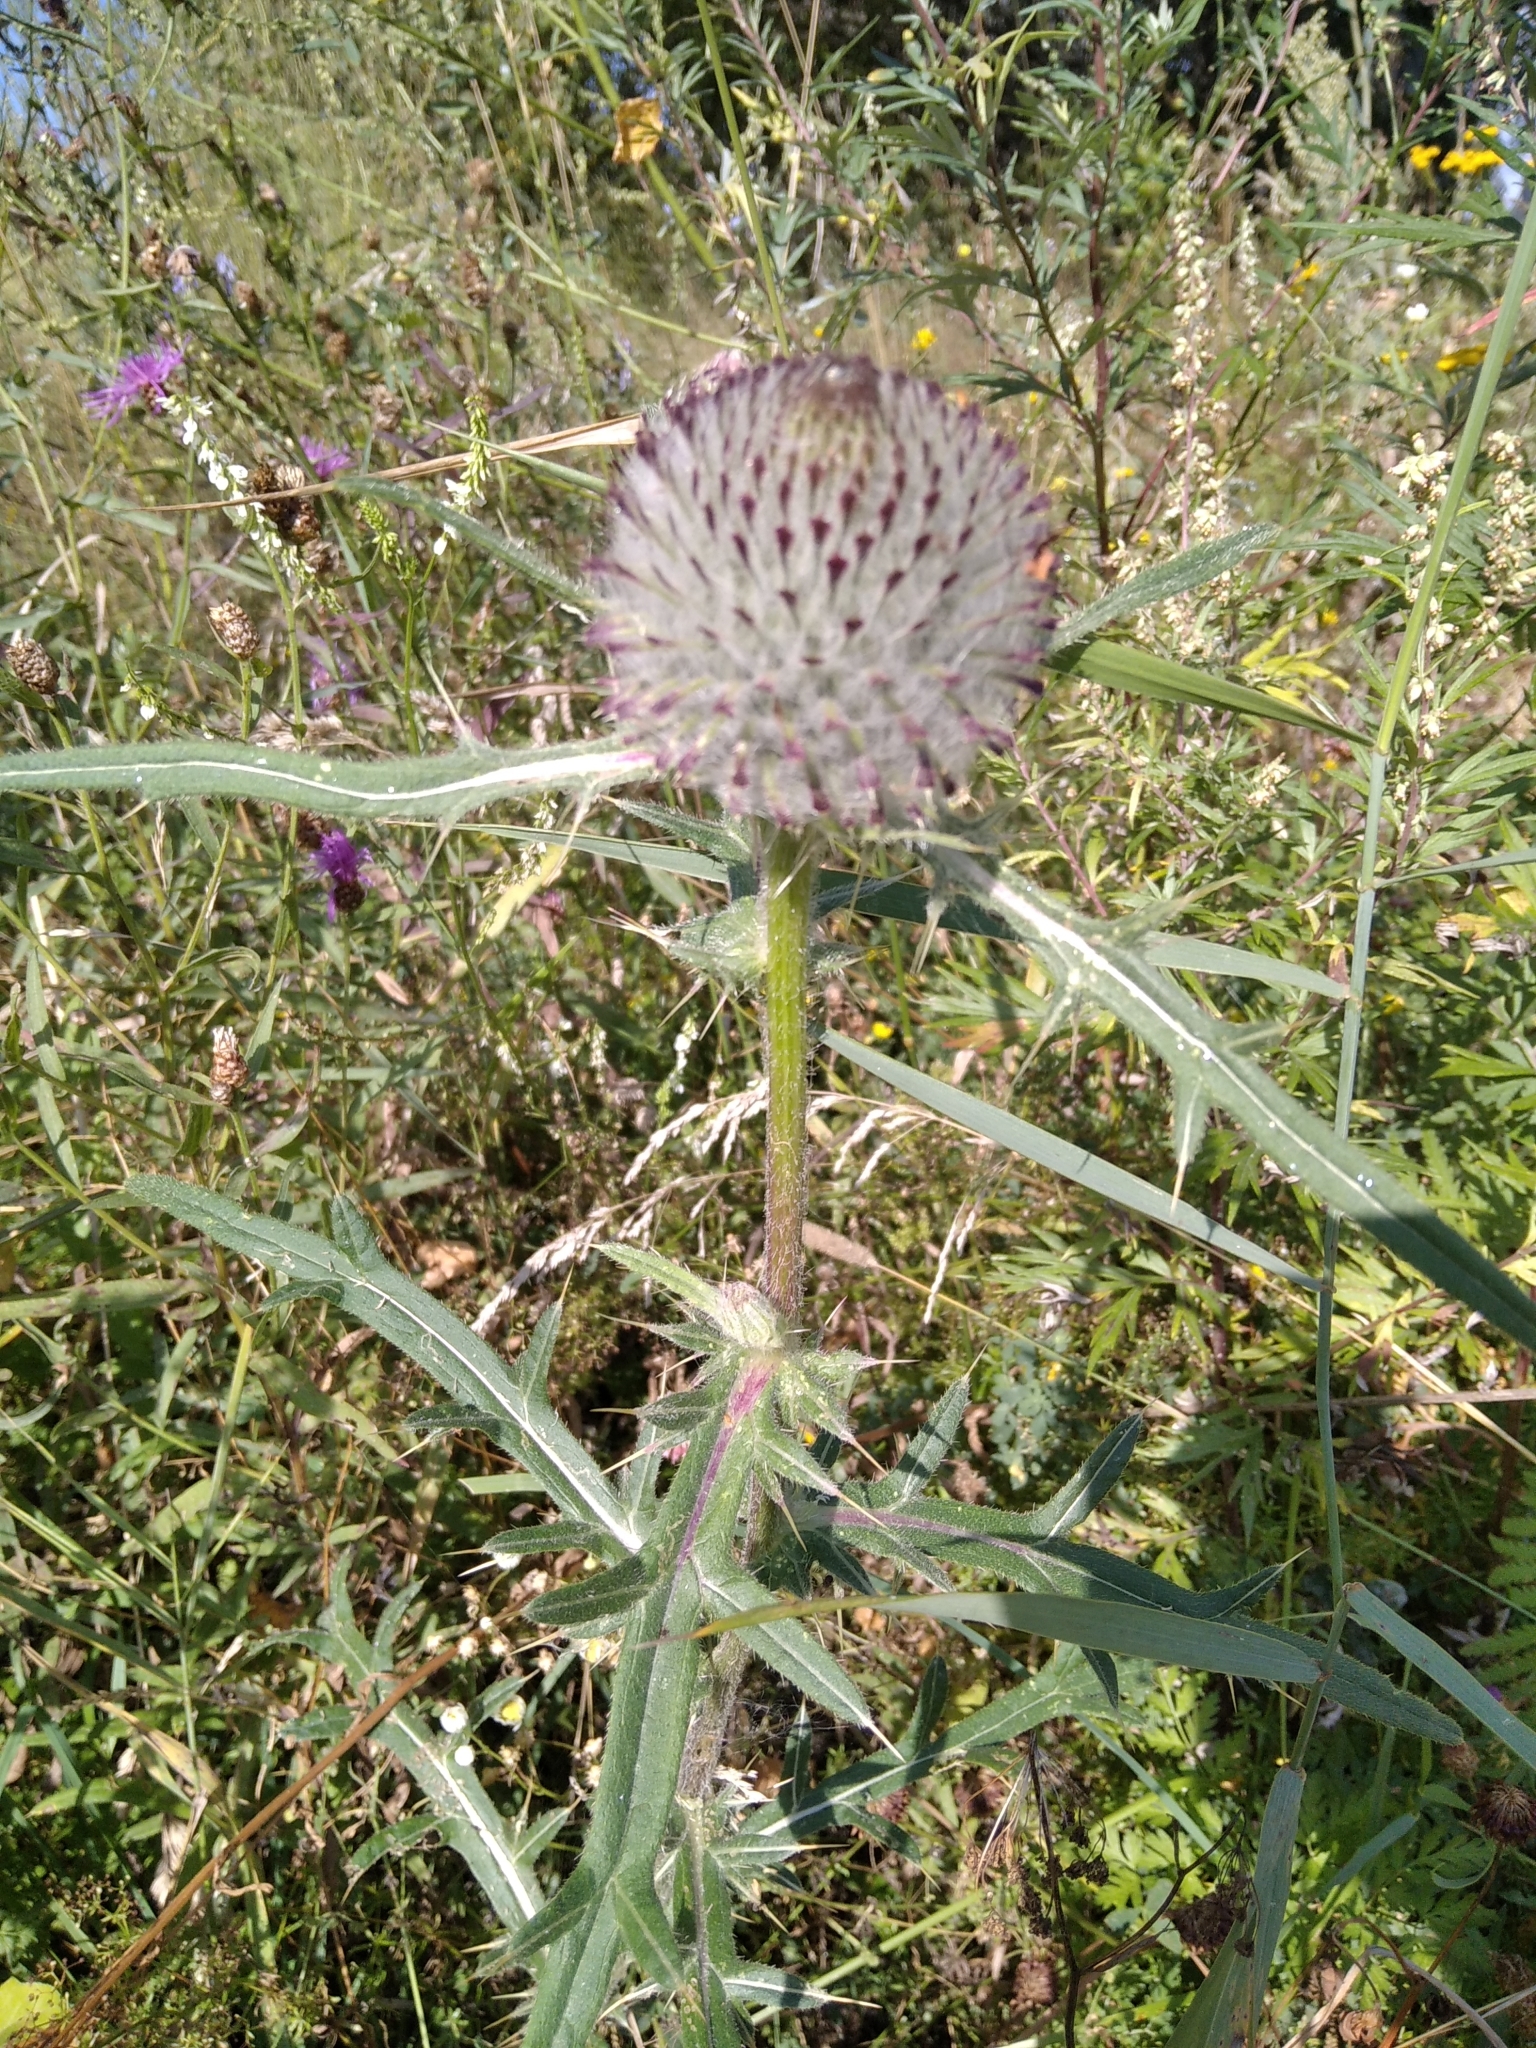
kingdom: Plantae
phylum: Tracheophyta
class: Magnoliopsida
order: Asterales
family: Asteraceae
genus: Lophiolepis
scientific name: Lophiolepis decussata
